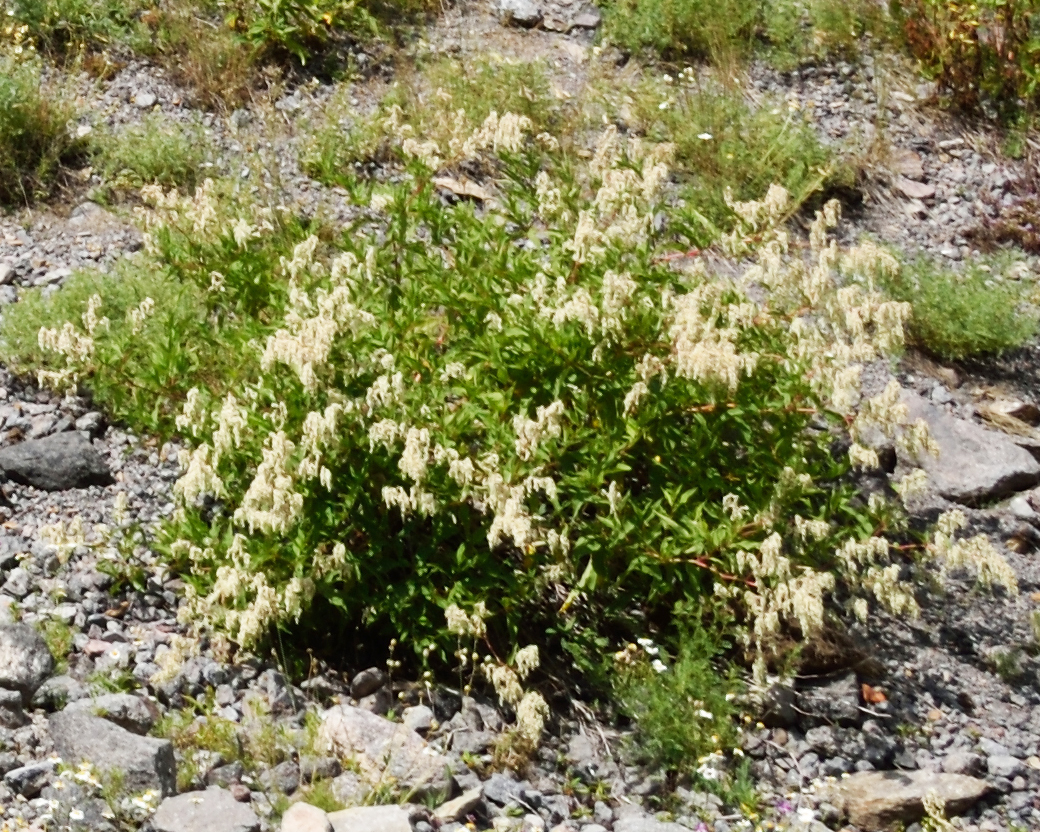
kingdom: Plantae
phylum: Tracheophyta
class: Magnoliopsida
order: Caryophyllales
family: Polygonaceae
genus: Koenigia
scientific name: Koenigia alpina
